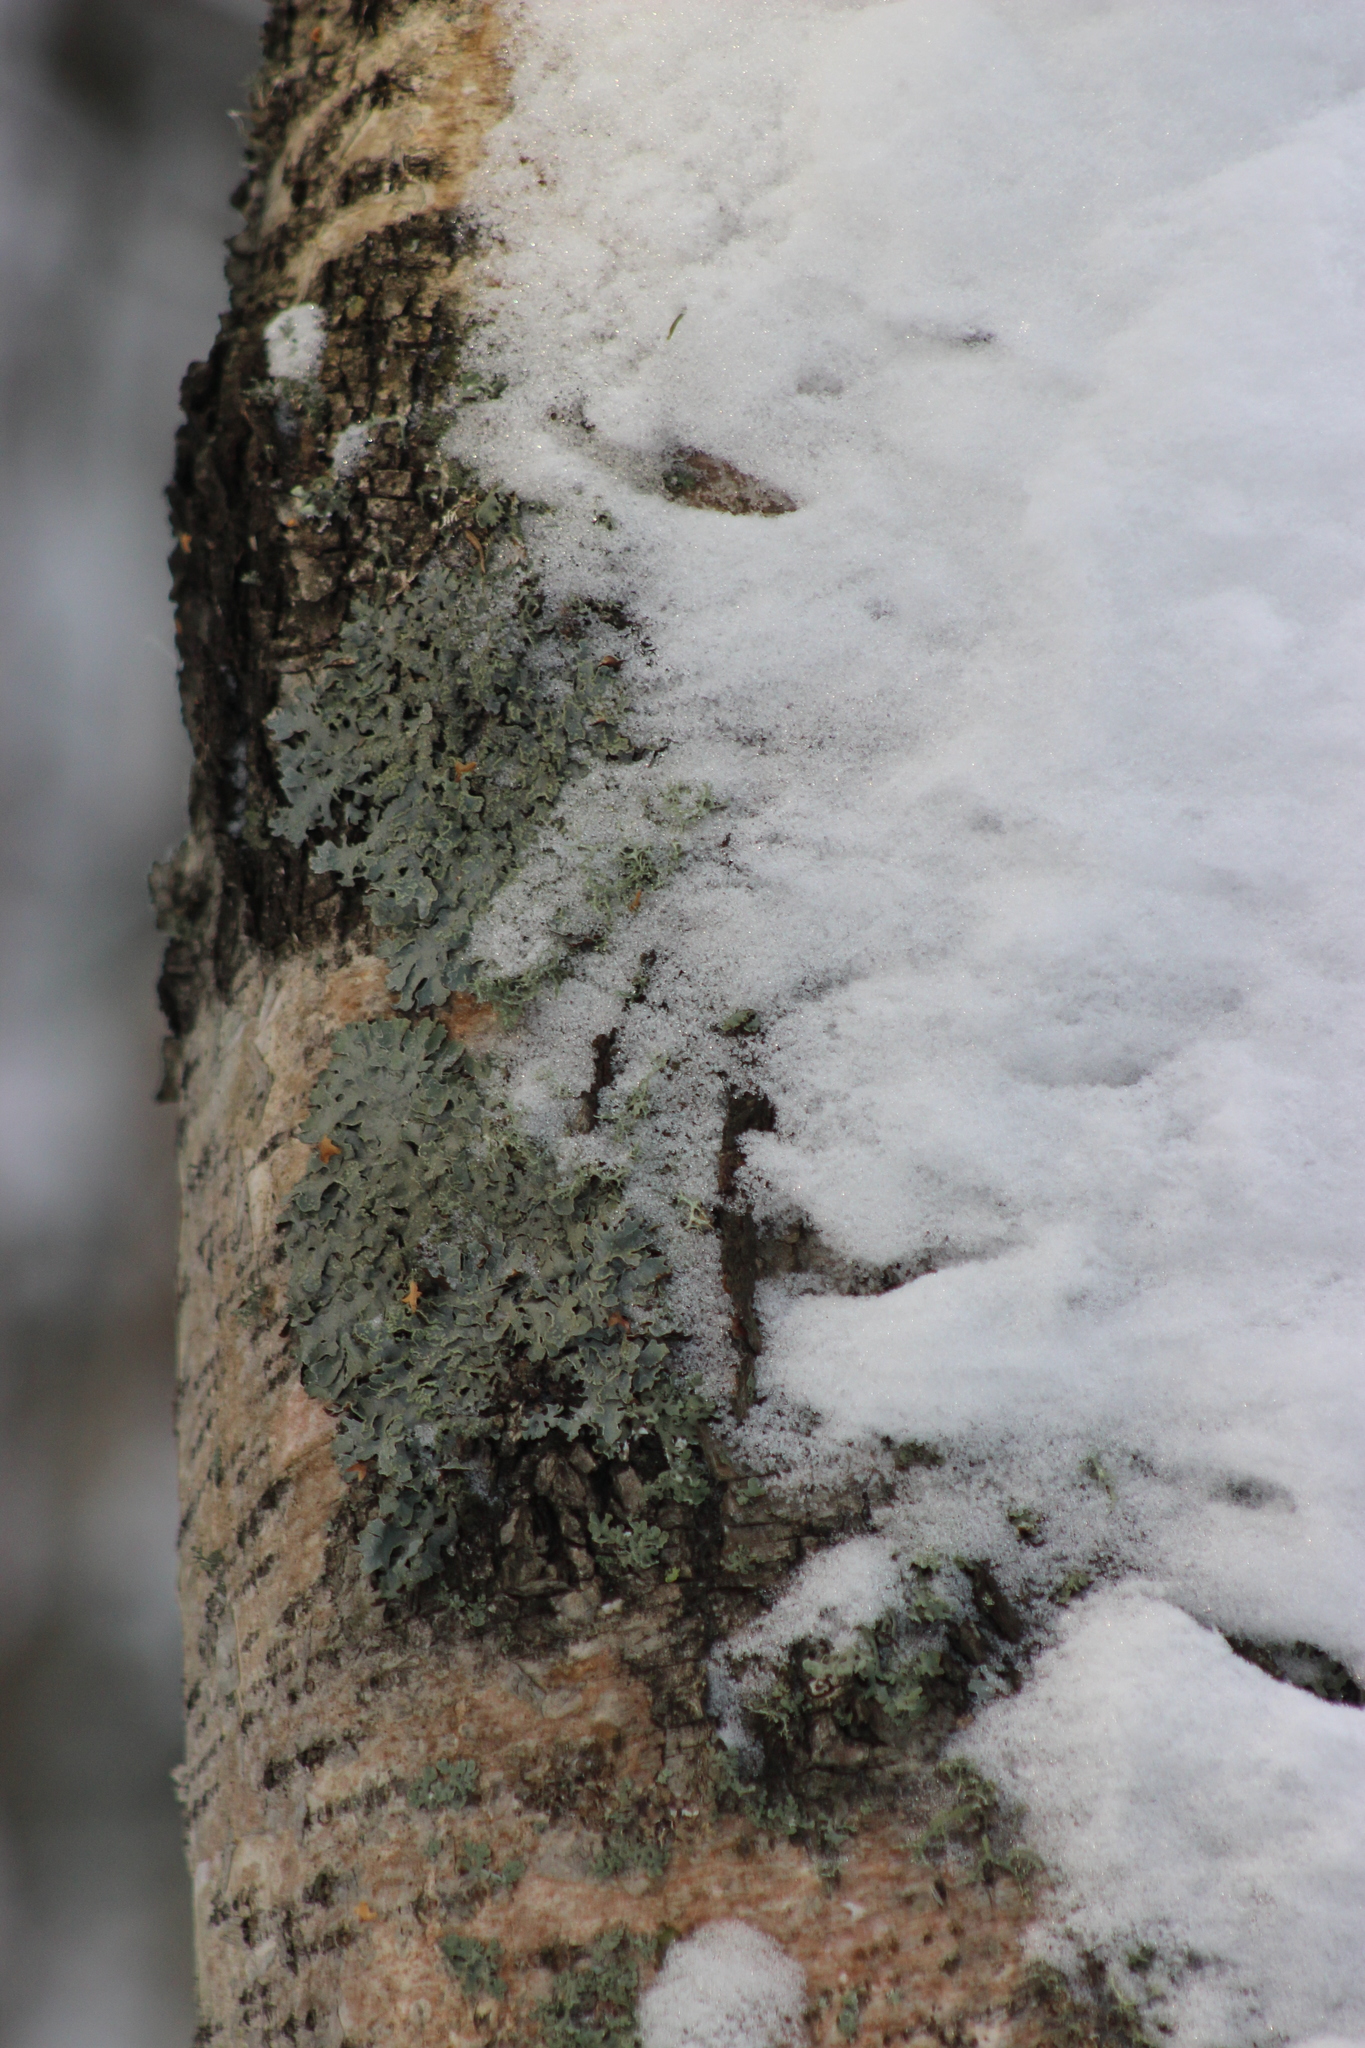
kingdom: Fungi
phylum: Ascomycota
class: Lecanoromycetes
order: Lecanorales
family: Parmeliaceae
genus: Parmelia
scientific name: Parmelia sulcata
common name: Netted shield lichen
